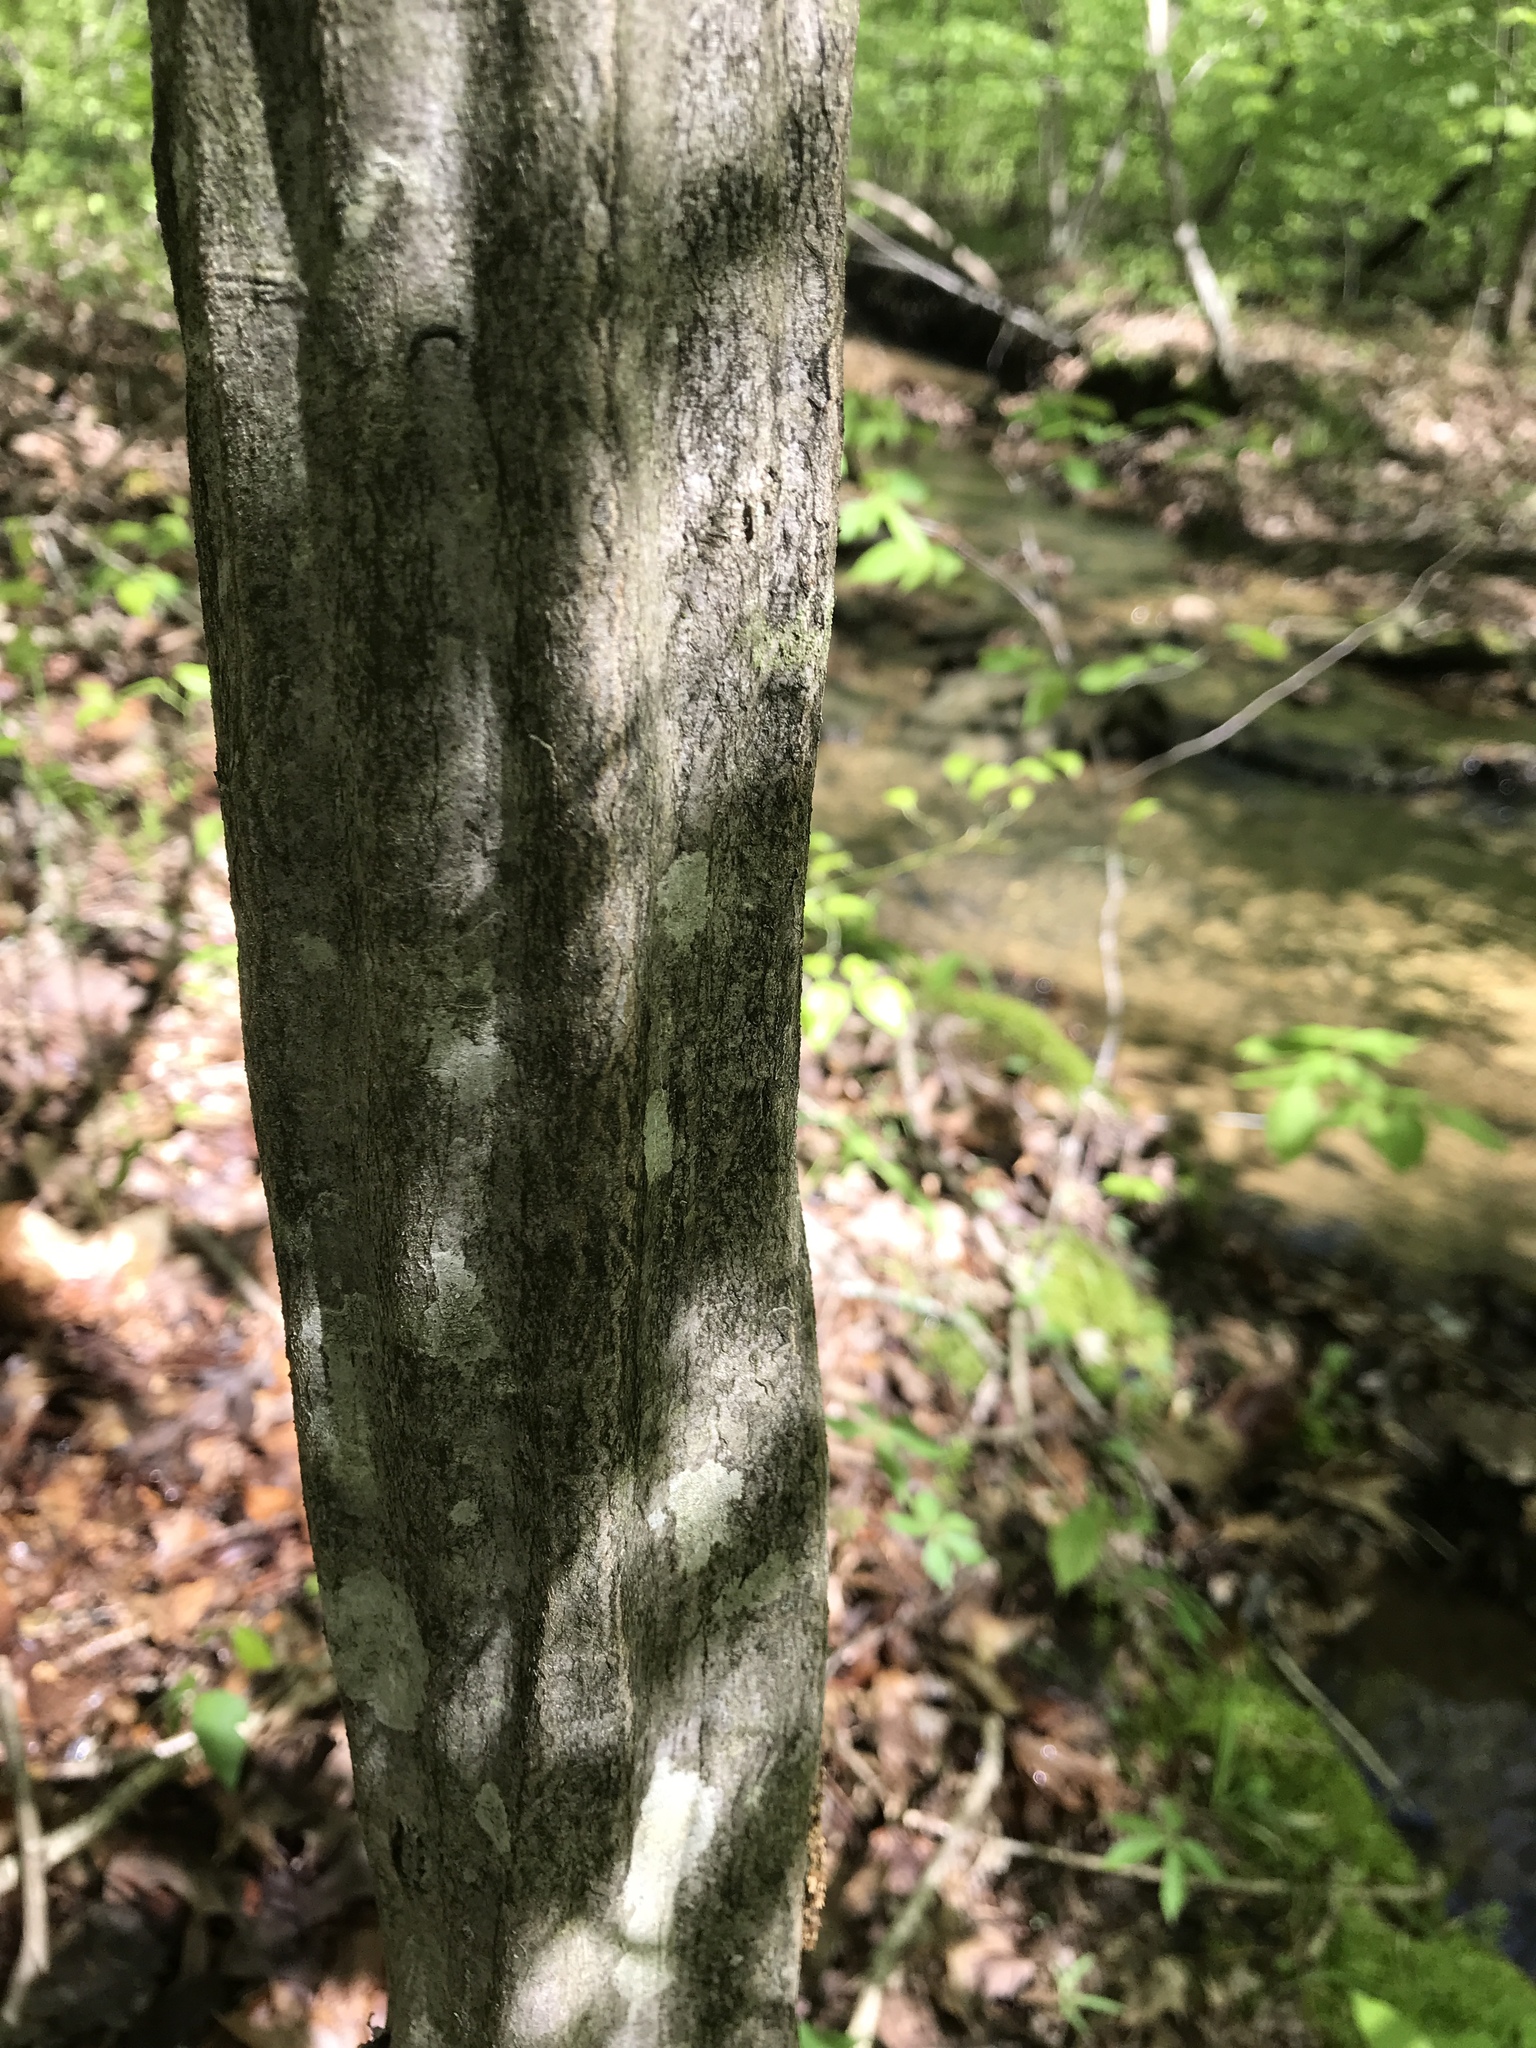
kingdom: Plantae
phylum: Tracheophyta
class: Magnoliopsida
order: Fagales
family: Betulaceae
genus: Carpinus
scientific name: Carpinus caroliniana
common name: American hornbeam
